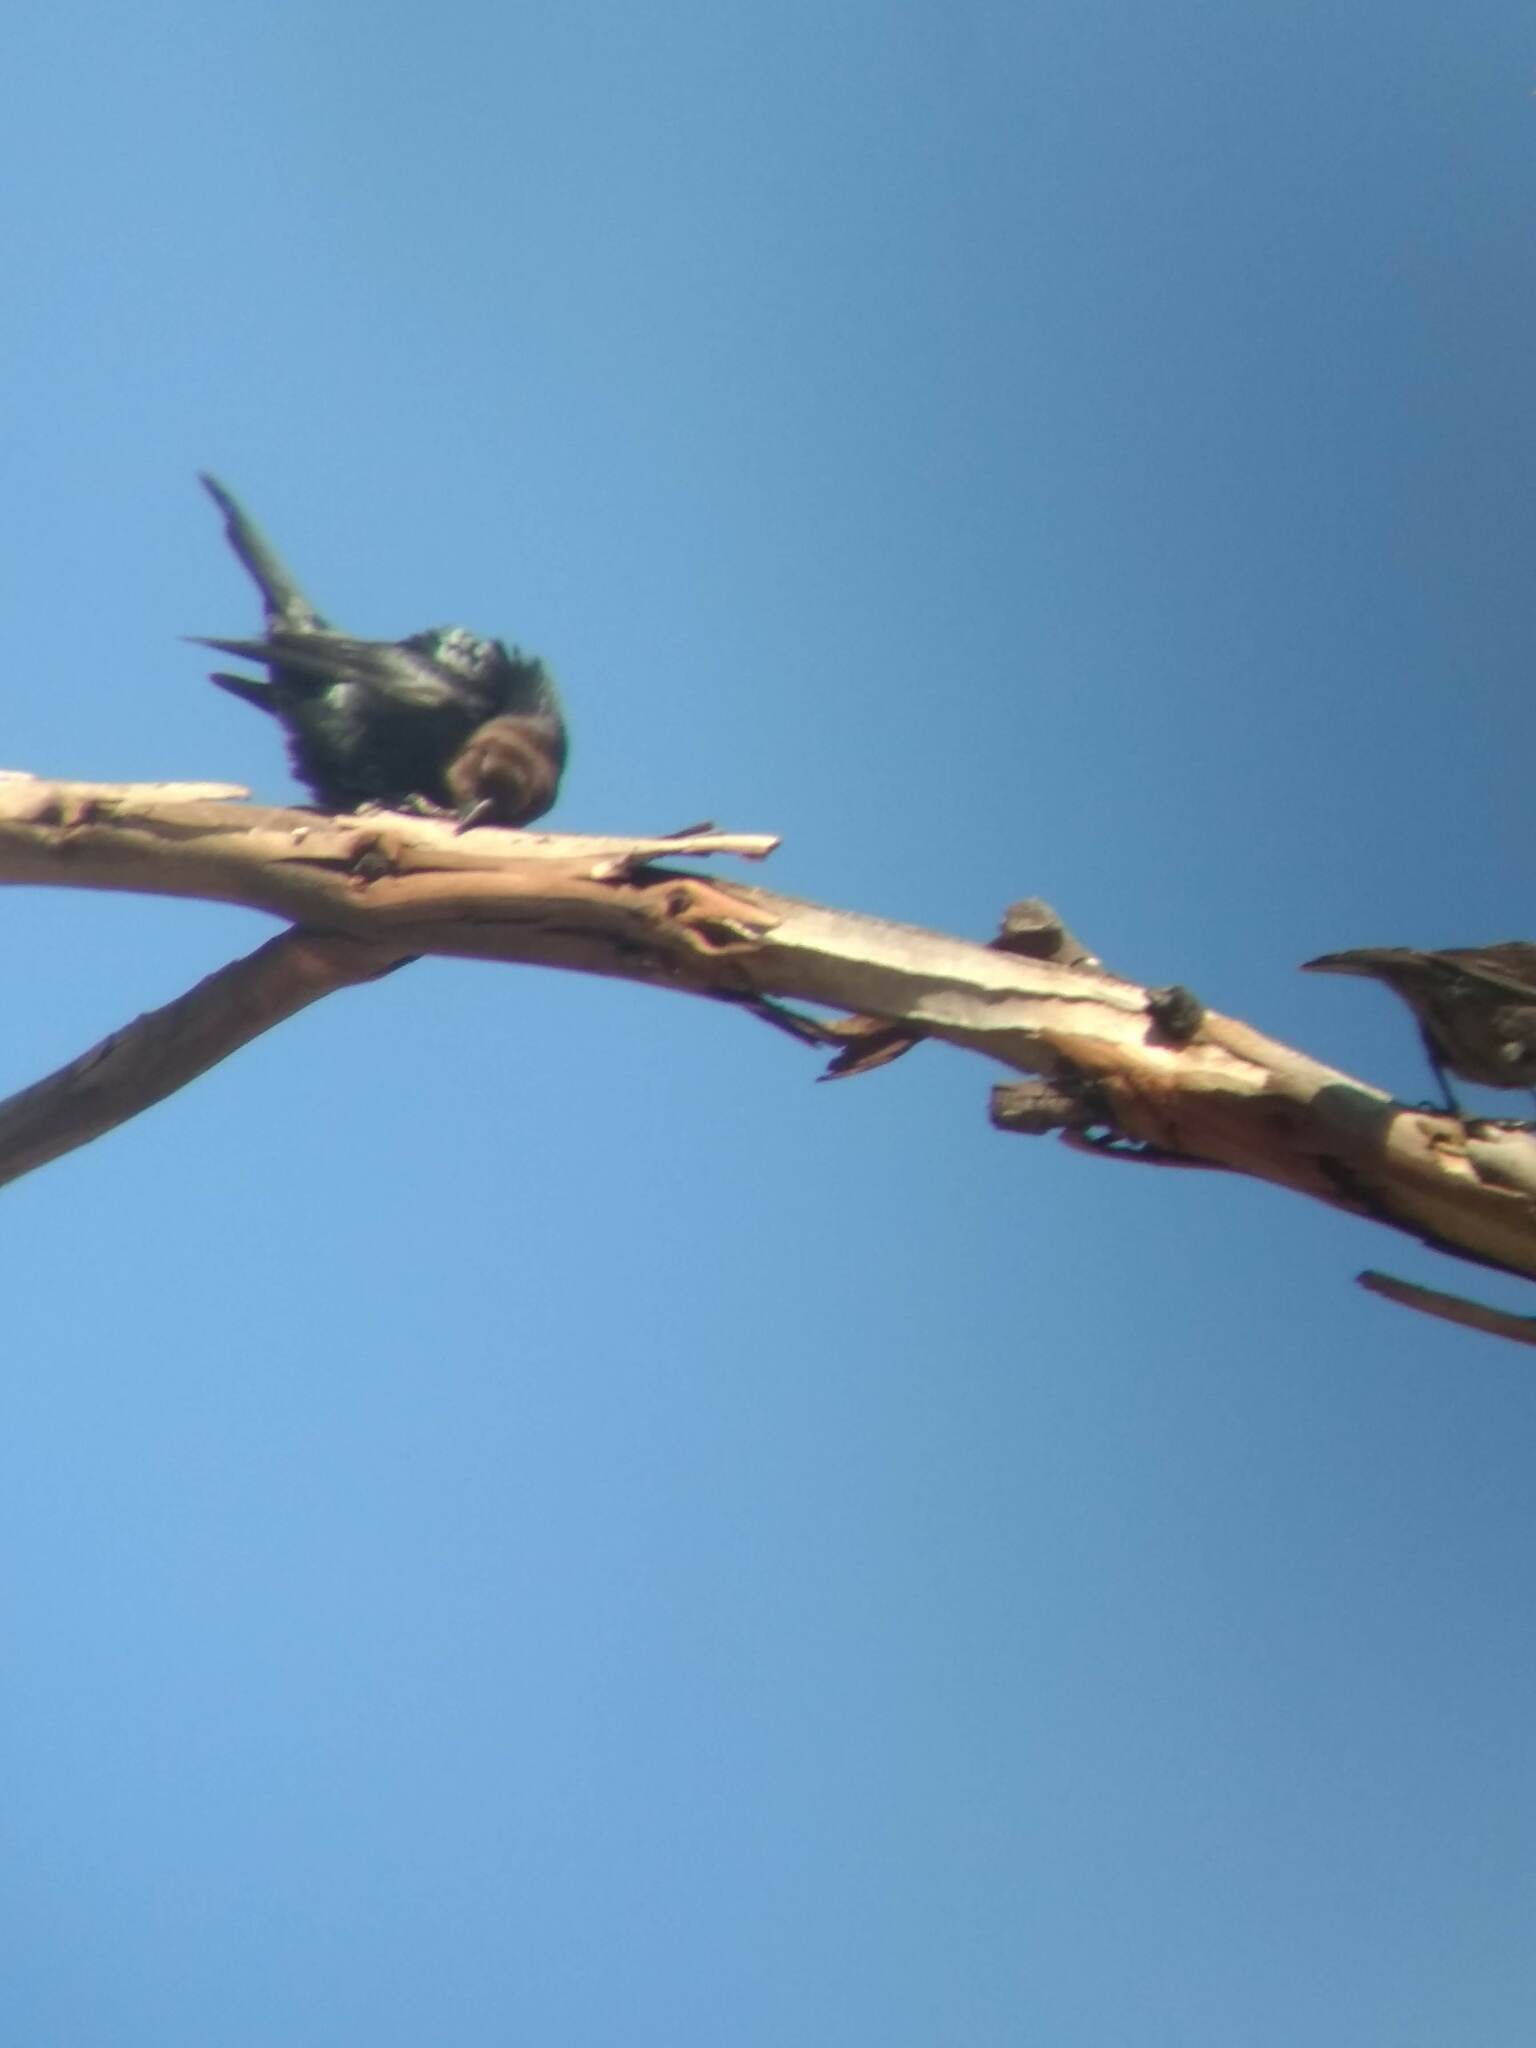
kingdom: Animalia
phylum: Chordata
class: Aves
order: Passeriformes
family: Icteridae
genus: Molothrus
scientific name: Molothrus ater
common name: Brown-headed cowbird
